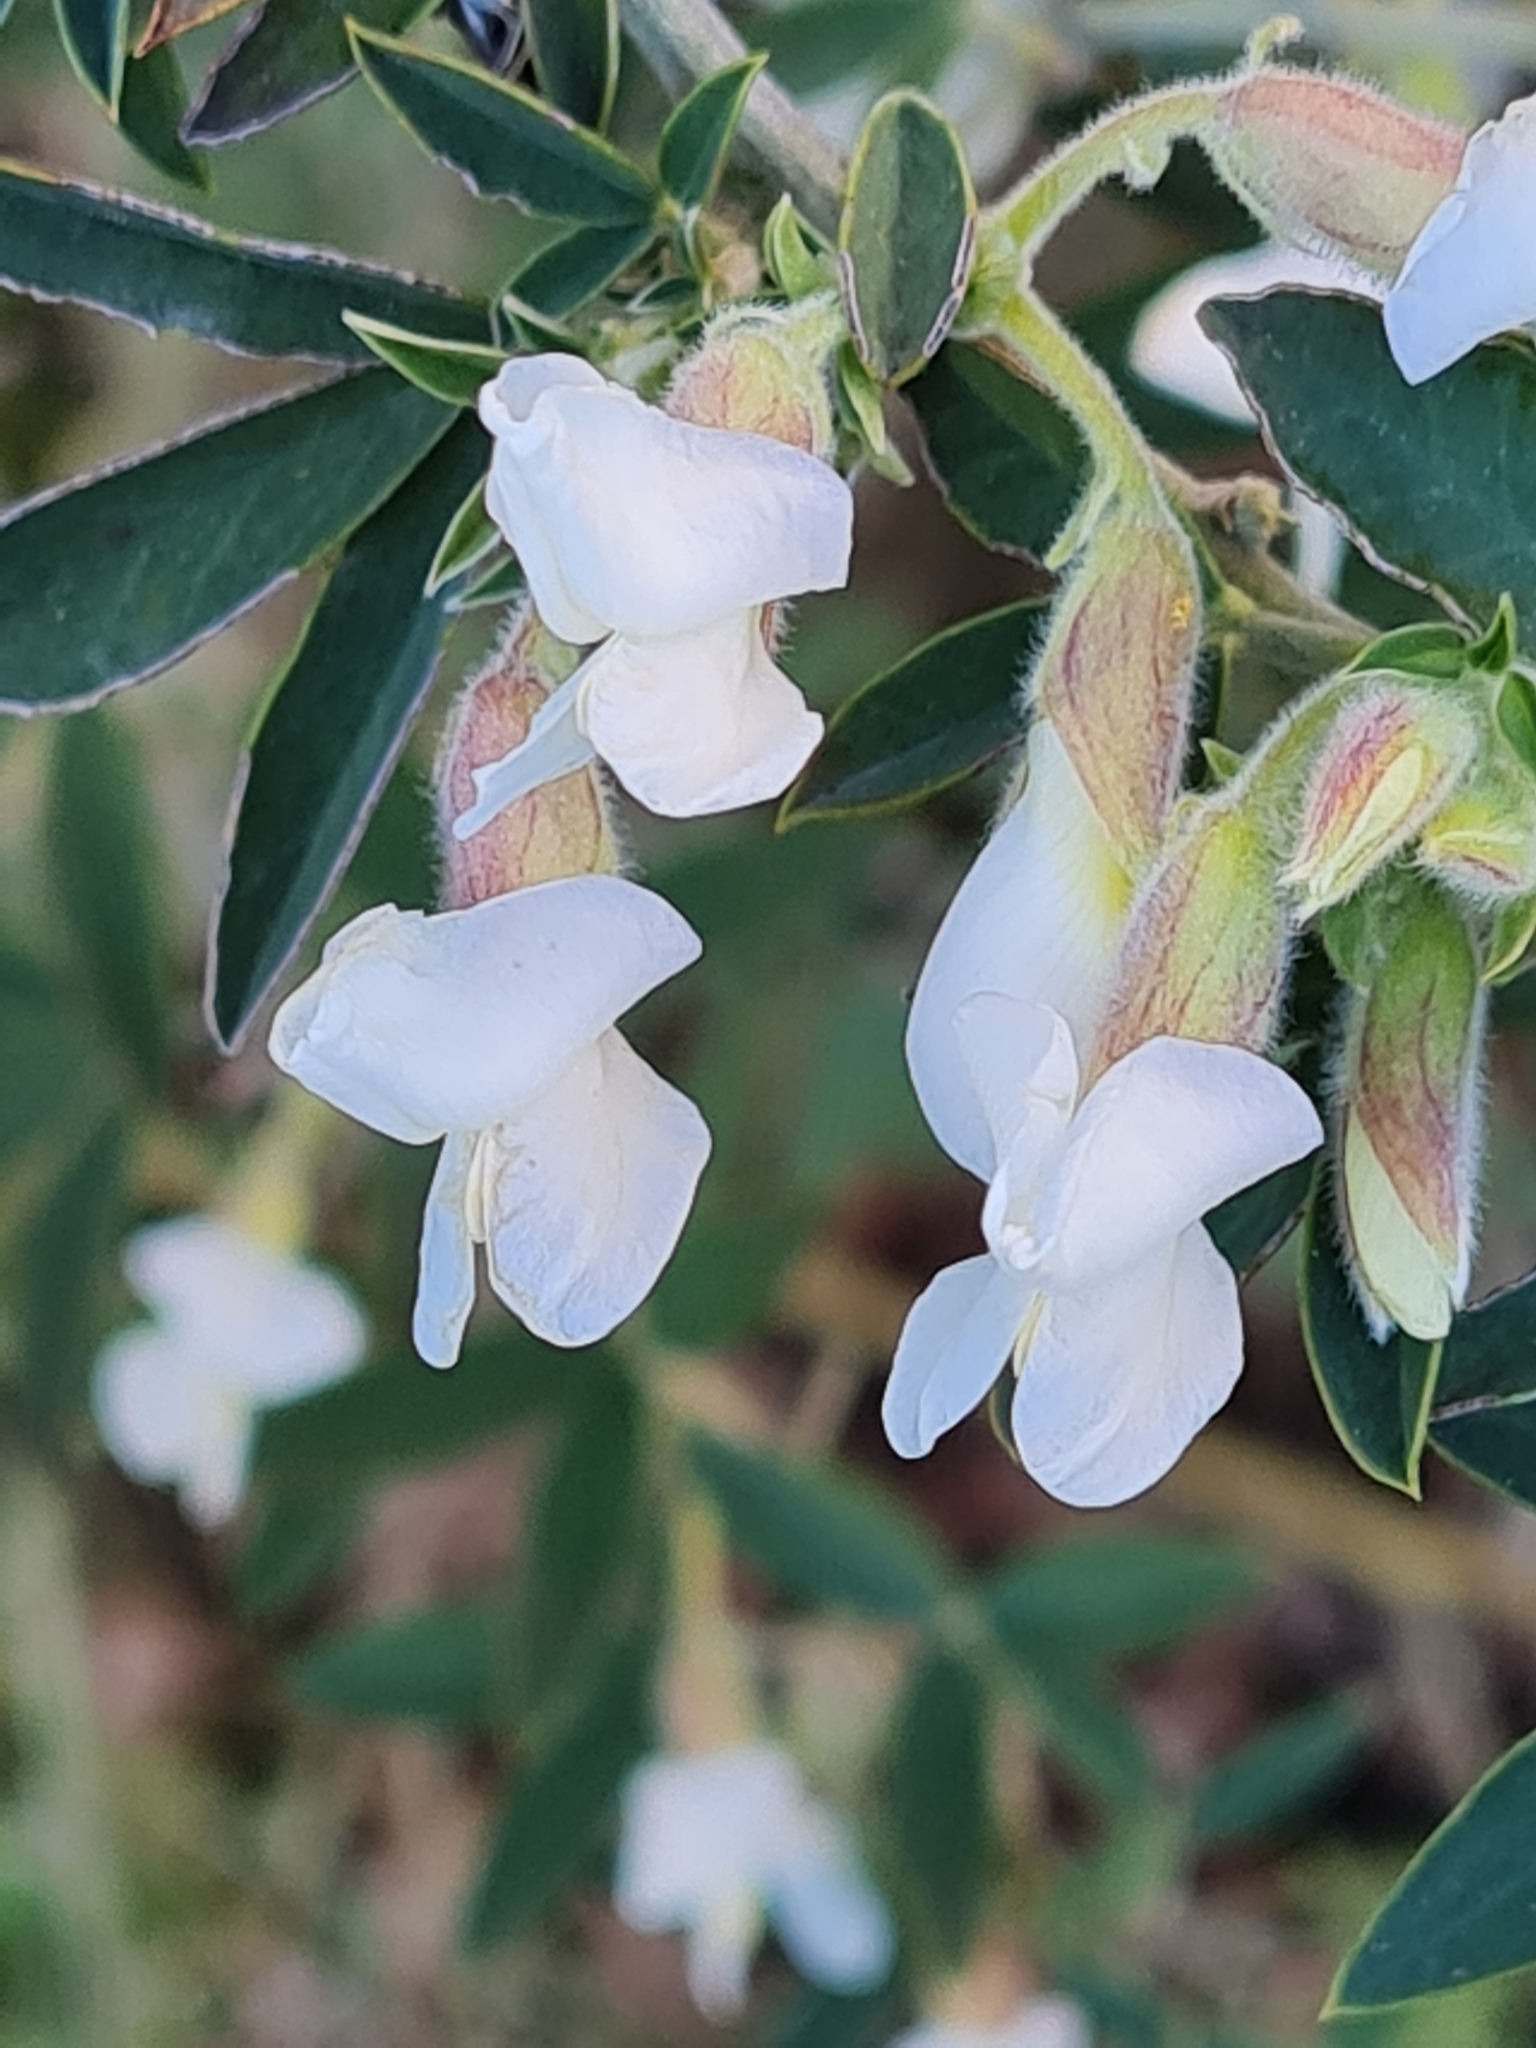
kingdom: Plantae
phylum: Tracheophyta
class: Magnoliopsida
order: Fabales
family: Fabaceae
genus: Chamaecytisus
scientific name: Chamaecytisus prolifer
